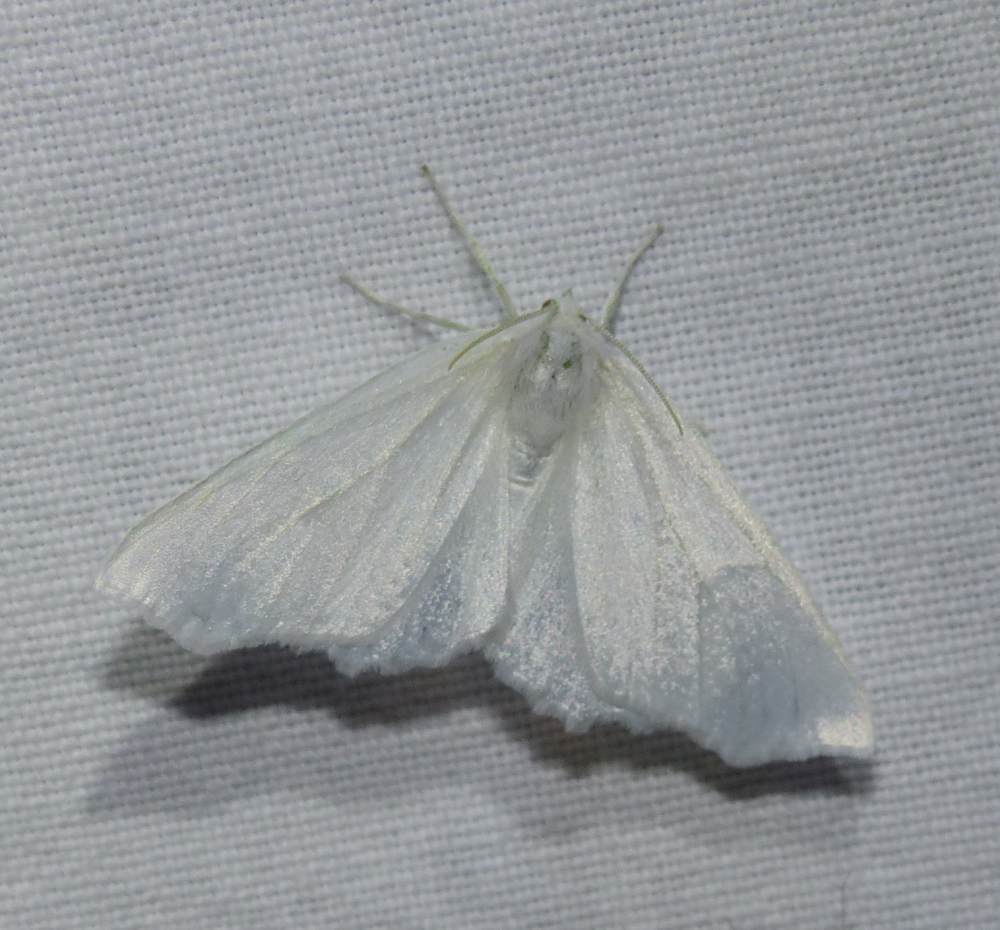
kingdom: Animalia
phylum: Arthropoda
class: Insecta
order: Lepidoptera
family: Geometridae
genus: Ennomos
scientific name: Ennomos subsignaria
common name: Elm spanworm
